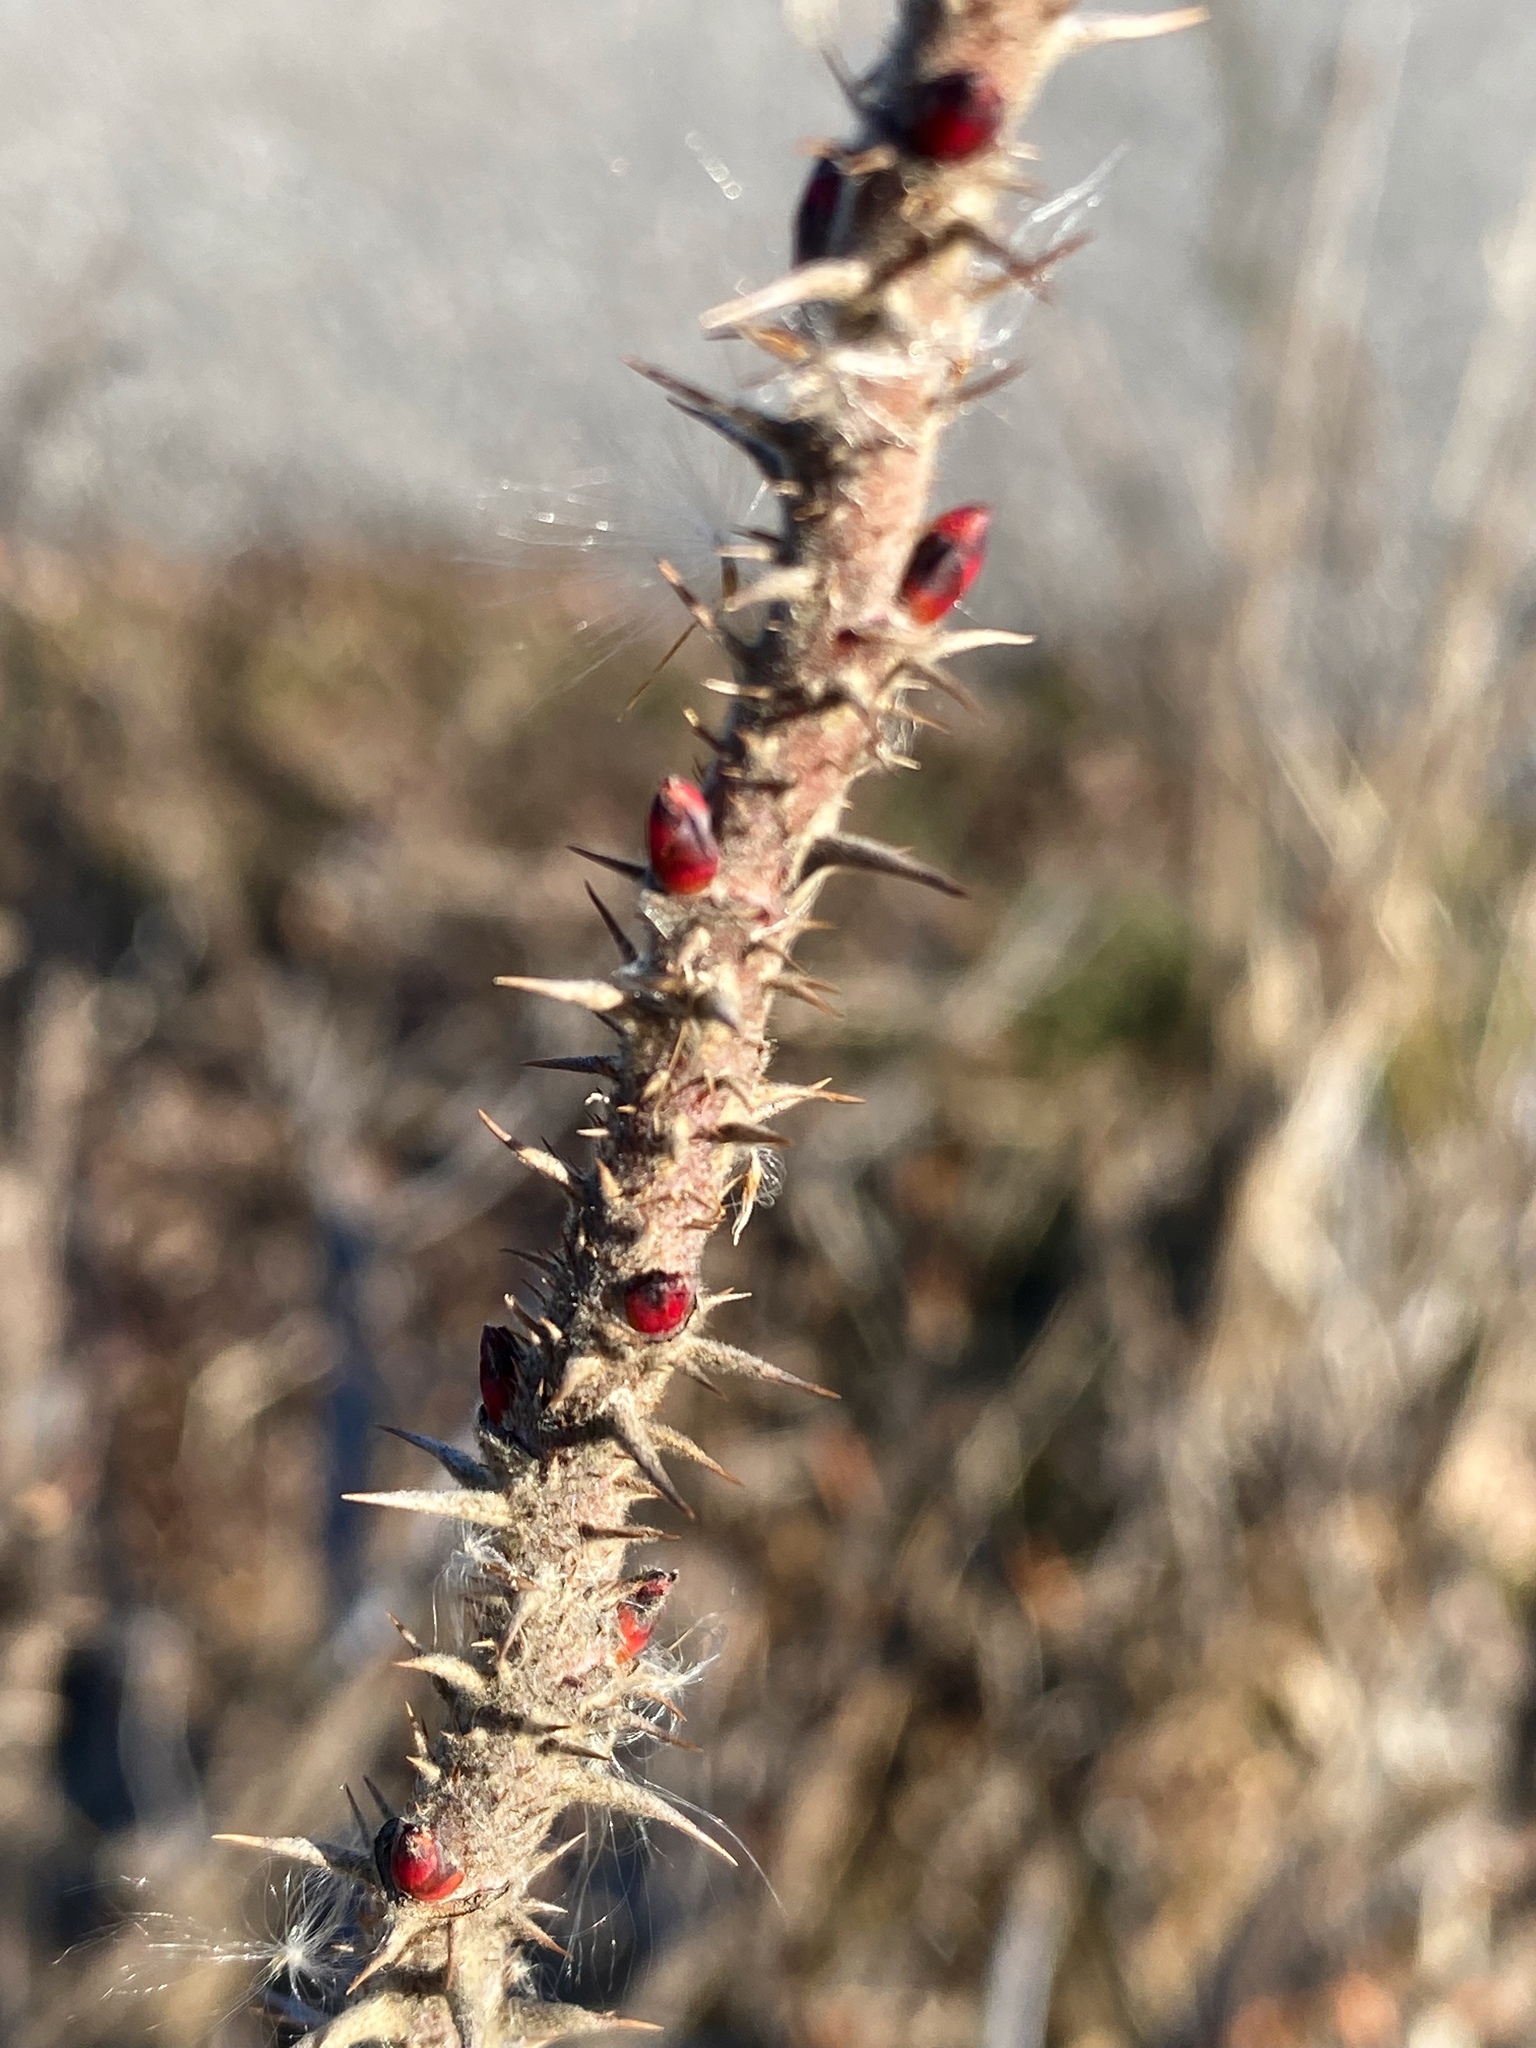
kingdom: Plantae
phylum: Tracheophyta
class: Magnoliopsida
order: Rosales
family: Rosaceae
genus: Rosa
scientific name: Rosa rugosa
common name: Japanese rose
